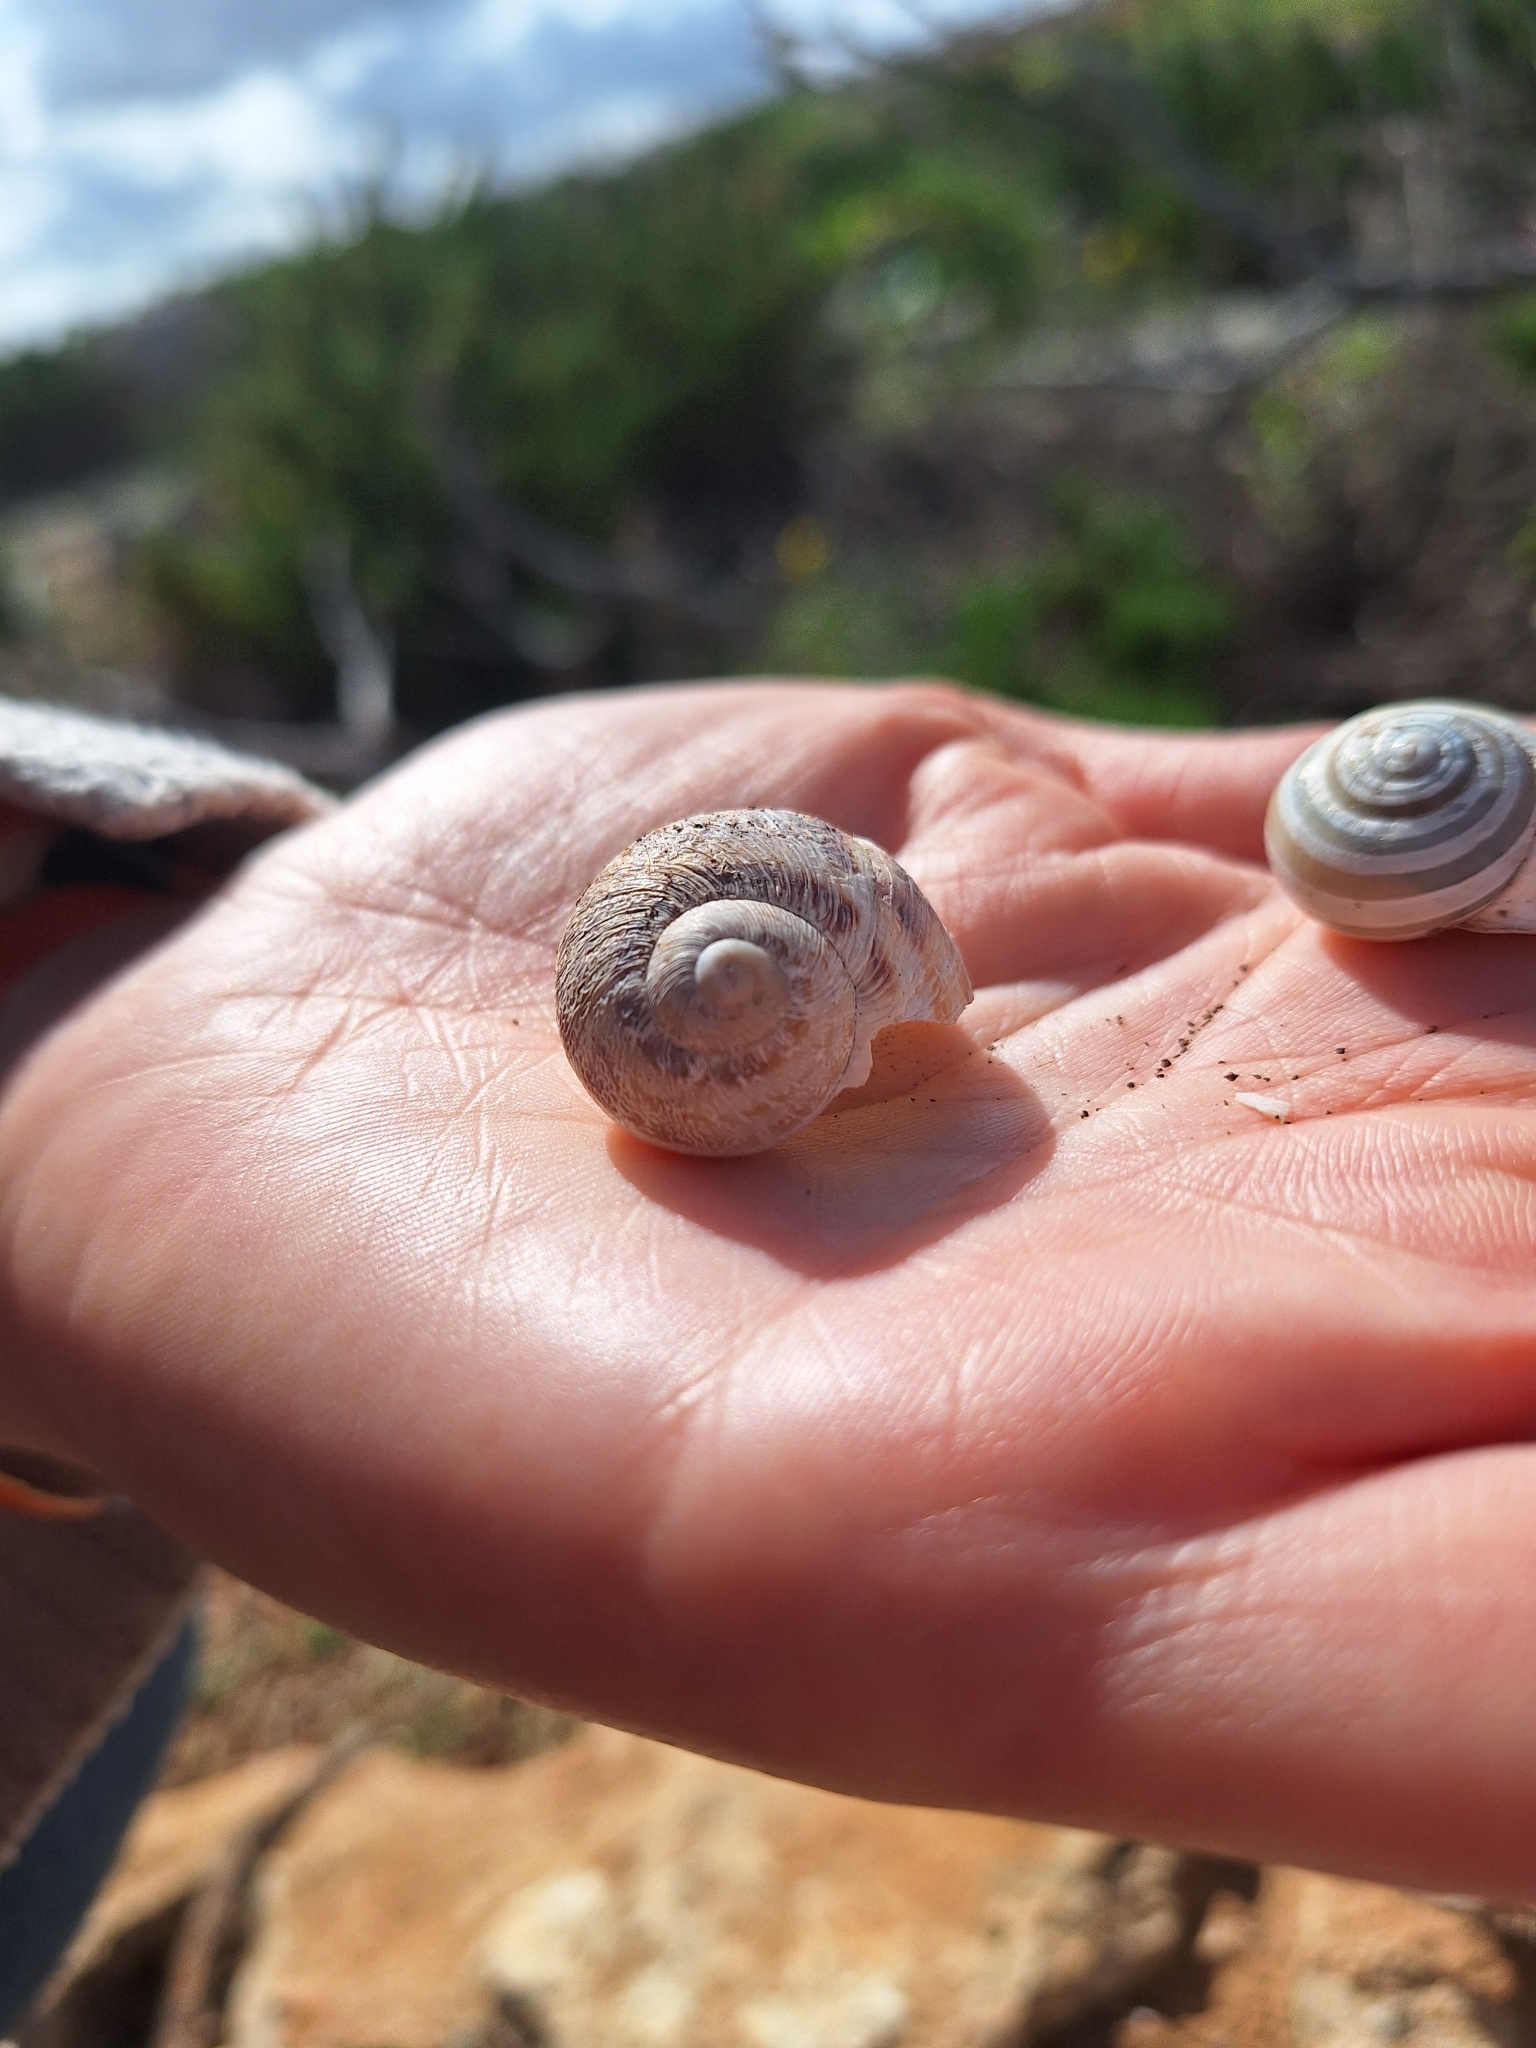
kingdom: Animalia
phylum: Mollusca
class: Gastropoda
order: Stylommatophora
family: Helicidae
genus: Cornu
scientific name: Cornu aspersum
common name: Brown garden snail
